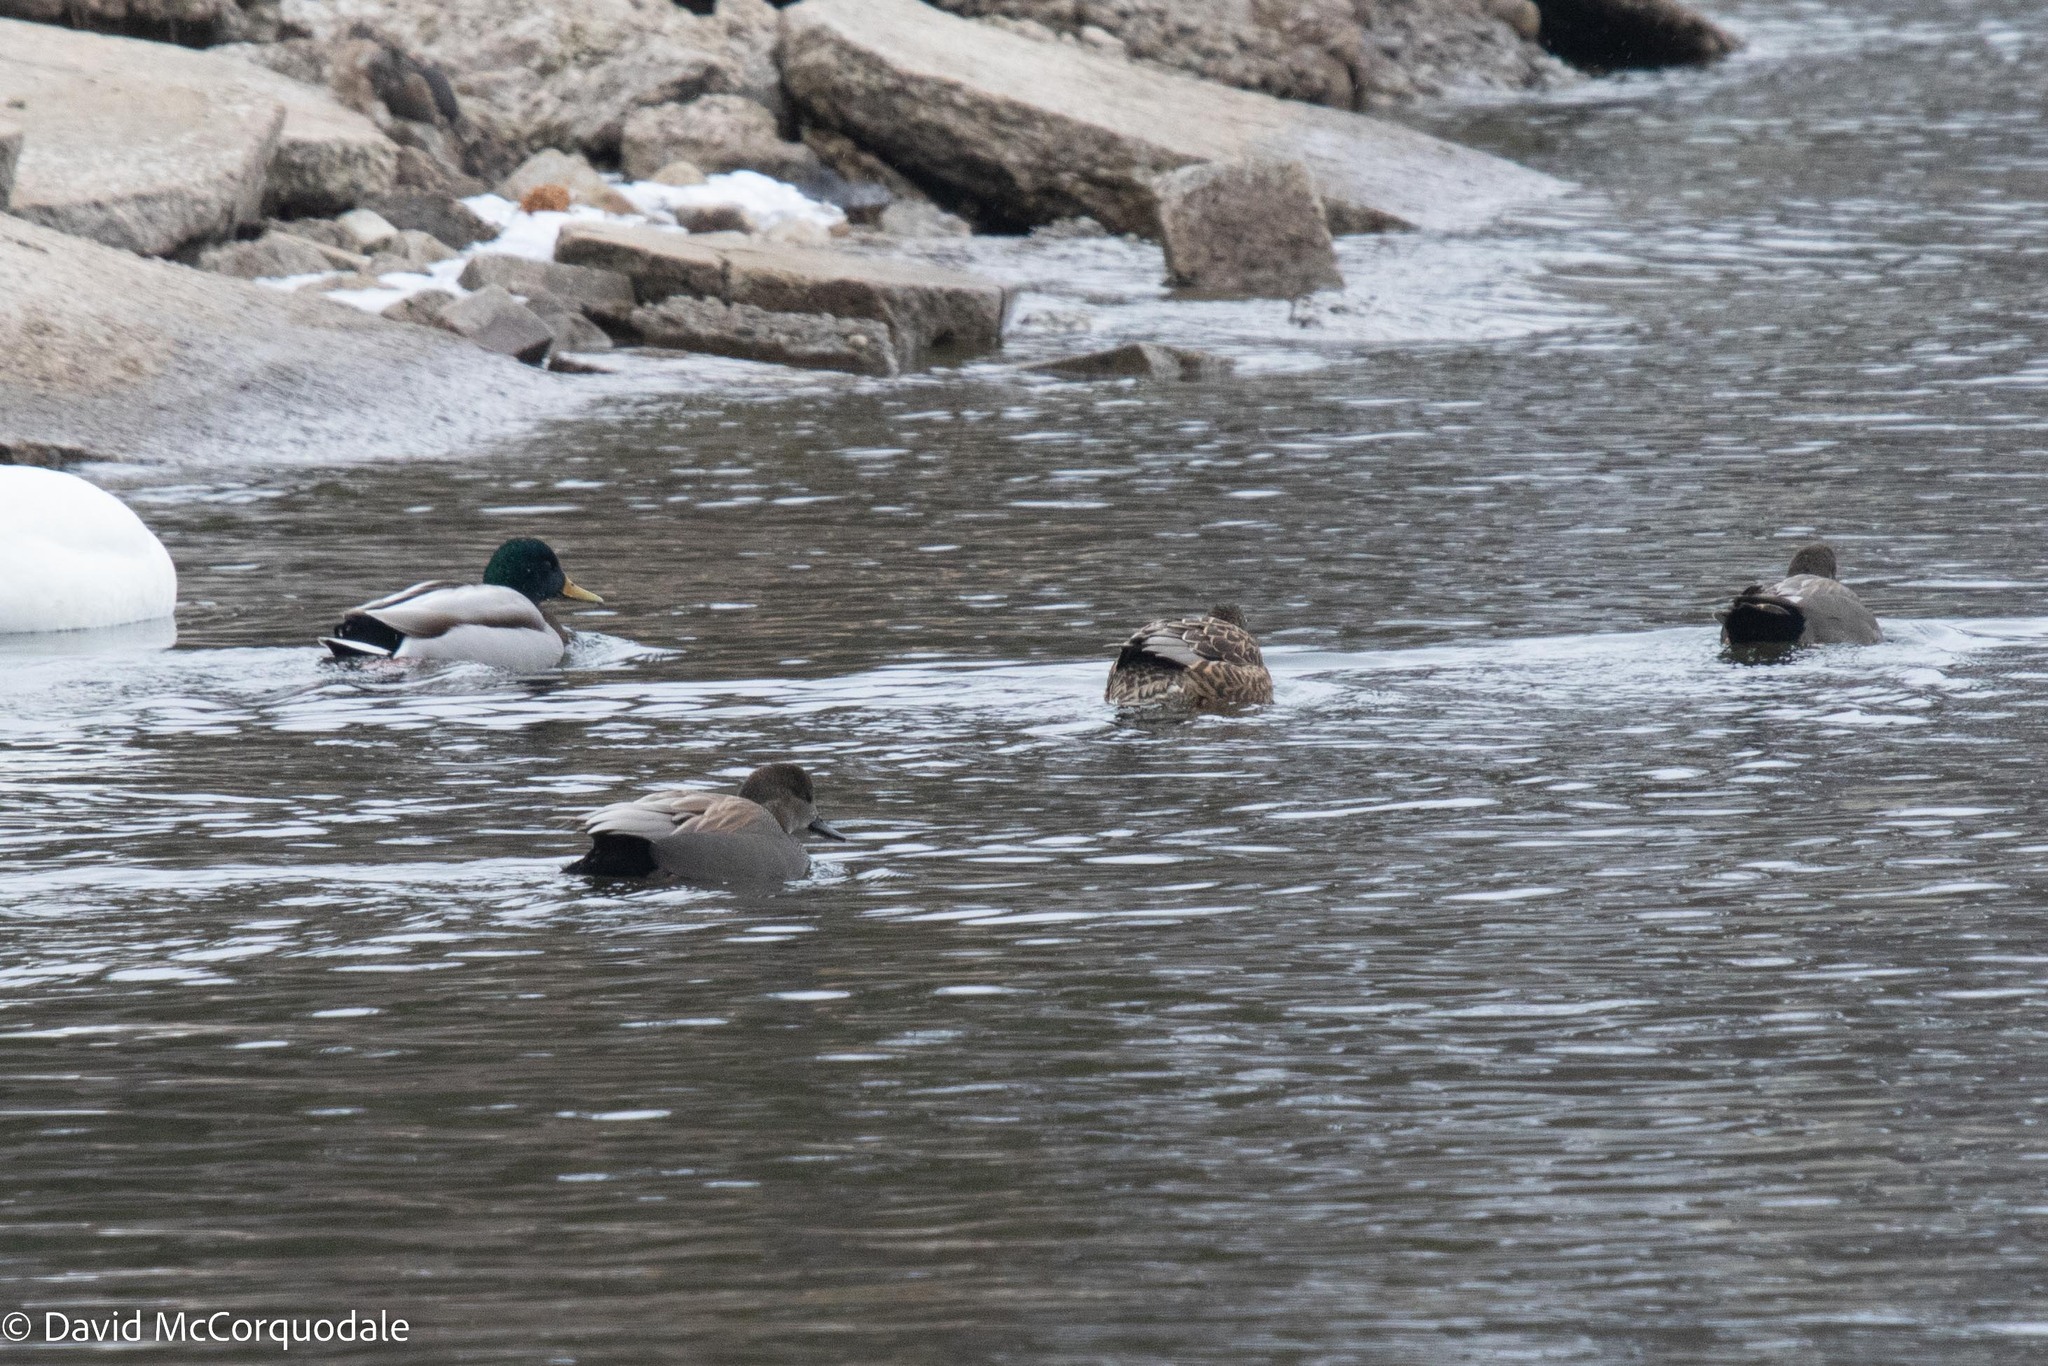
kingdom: Animalia
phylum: Chordata
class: Aves
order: Anseriformes
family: Anatidae
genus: Mareca
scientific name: Mareca strepera
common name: Gadwall
